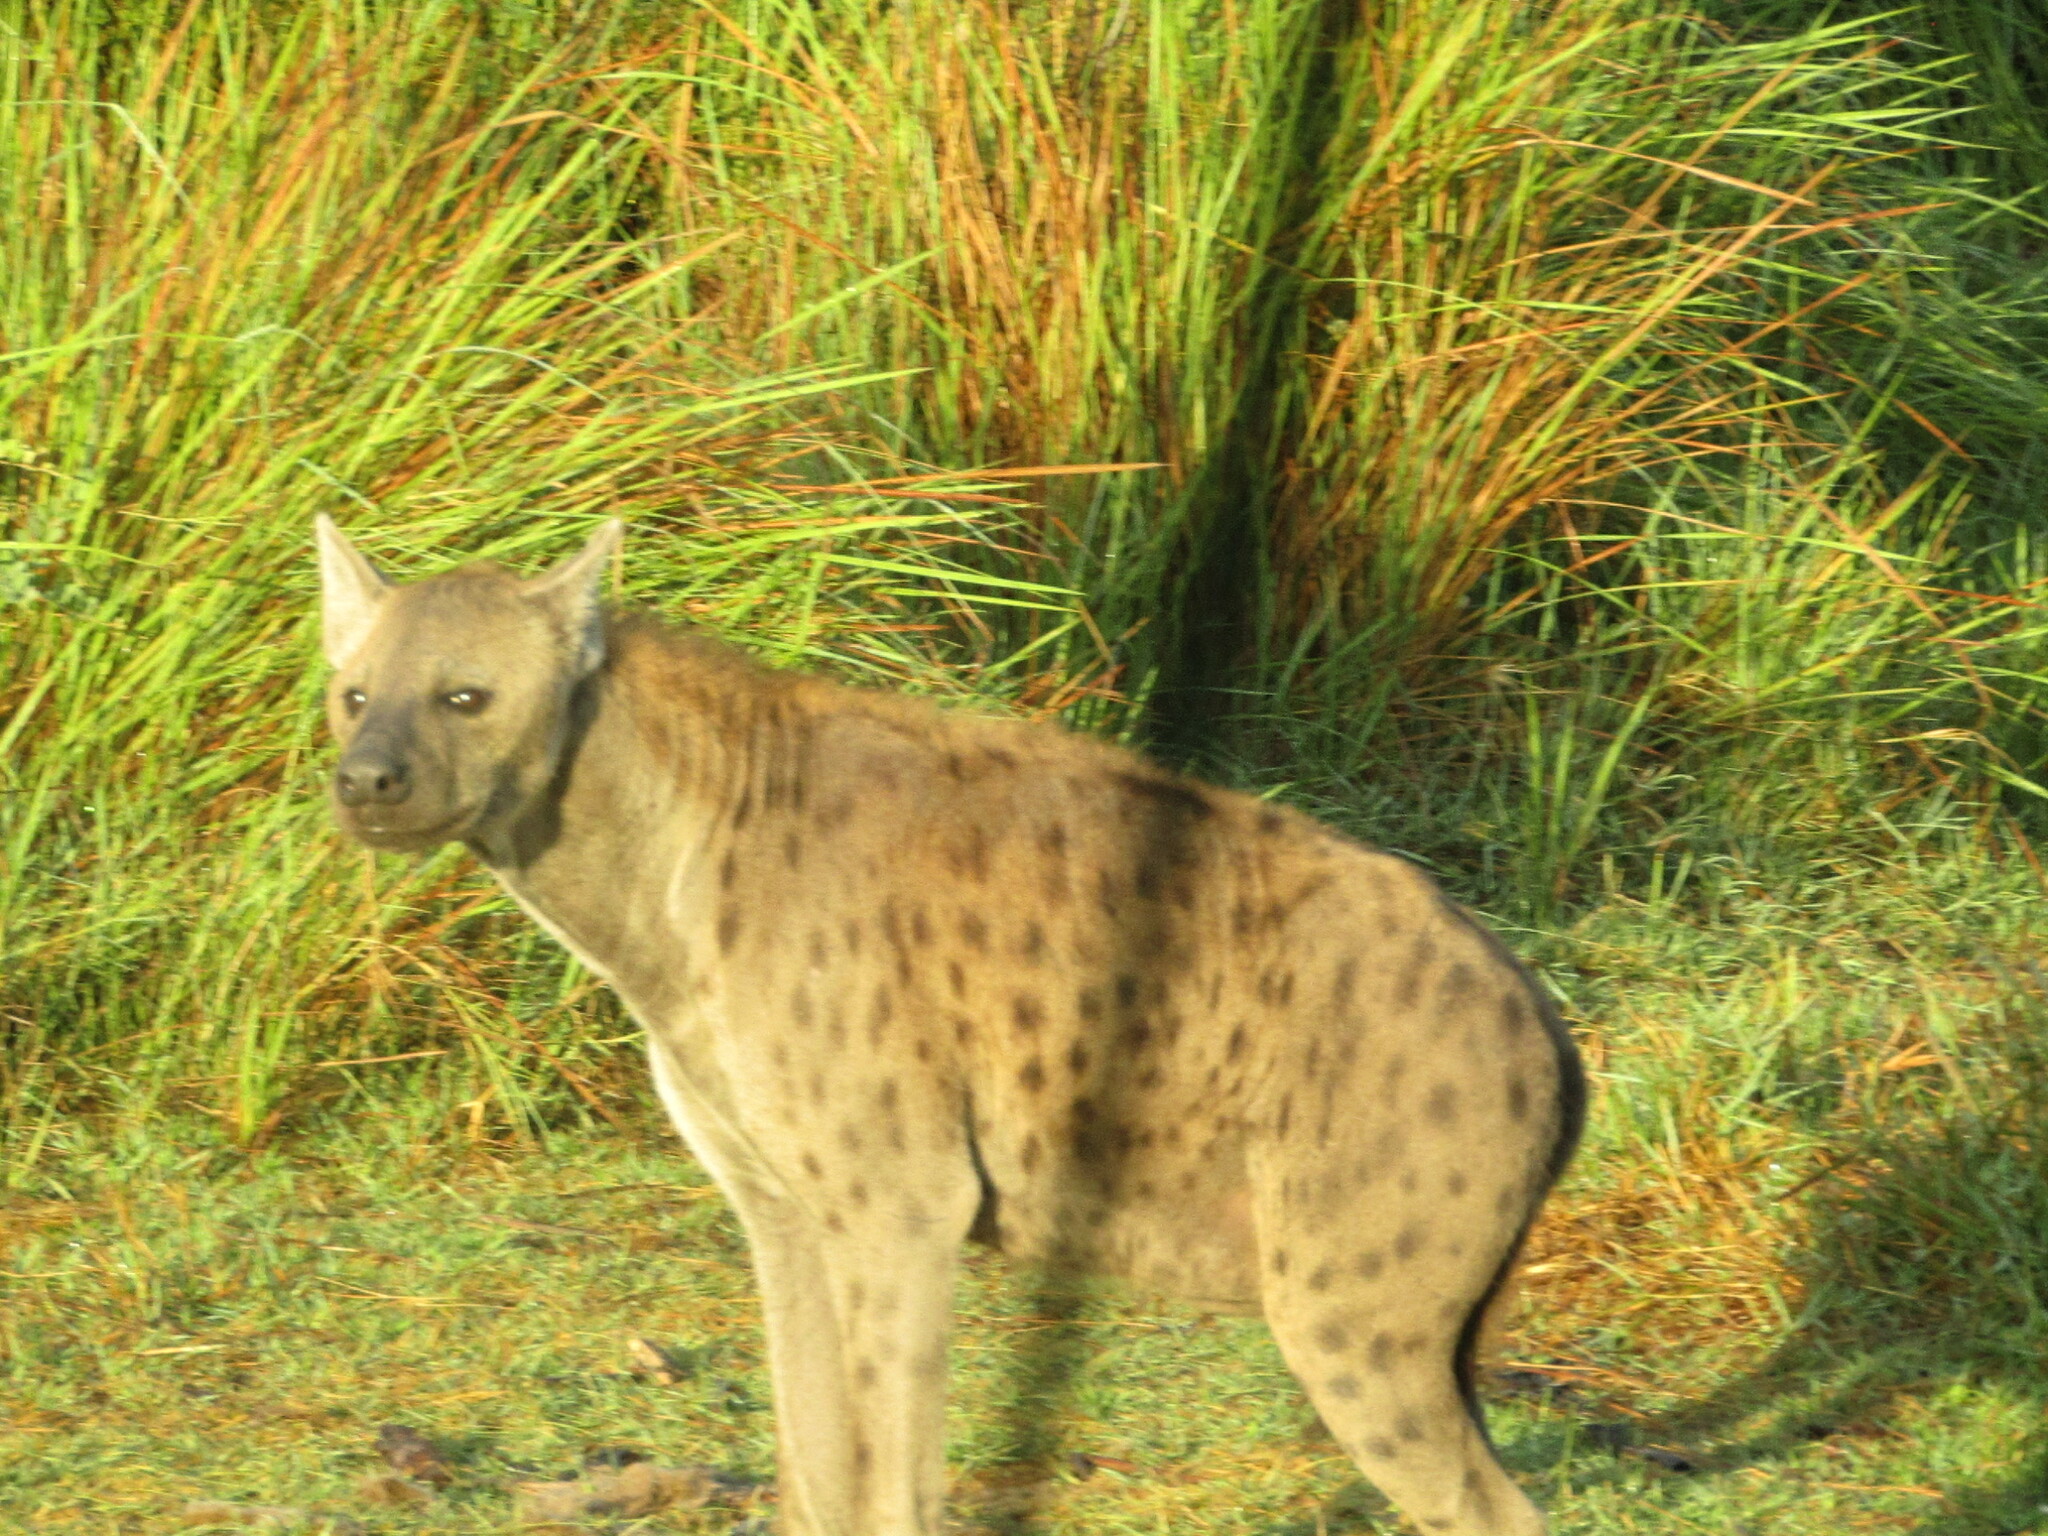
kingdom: Animalia
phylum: Chordata
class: Mammalia
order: Carnivora
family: Hyaenidae
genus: Crocuta
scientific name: Crocuta crocuta
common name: Spotted hyaena
